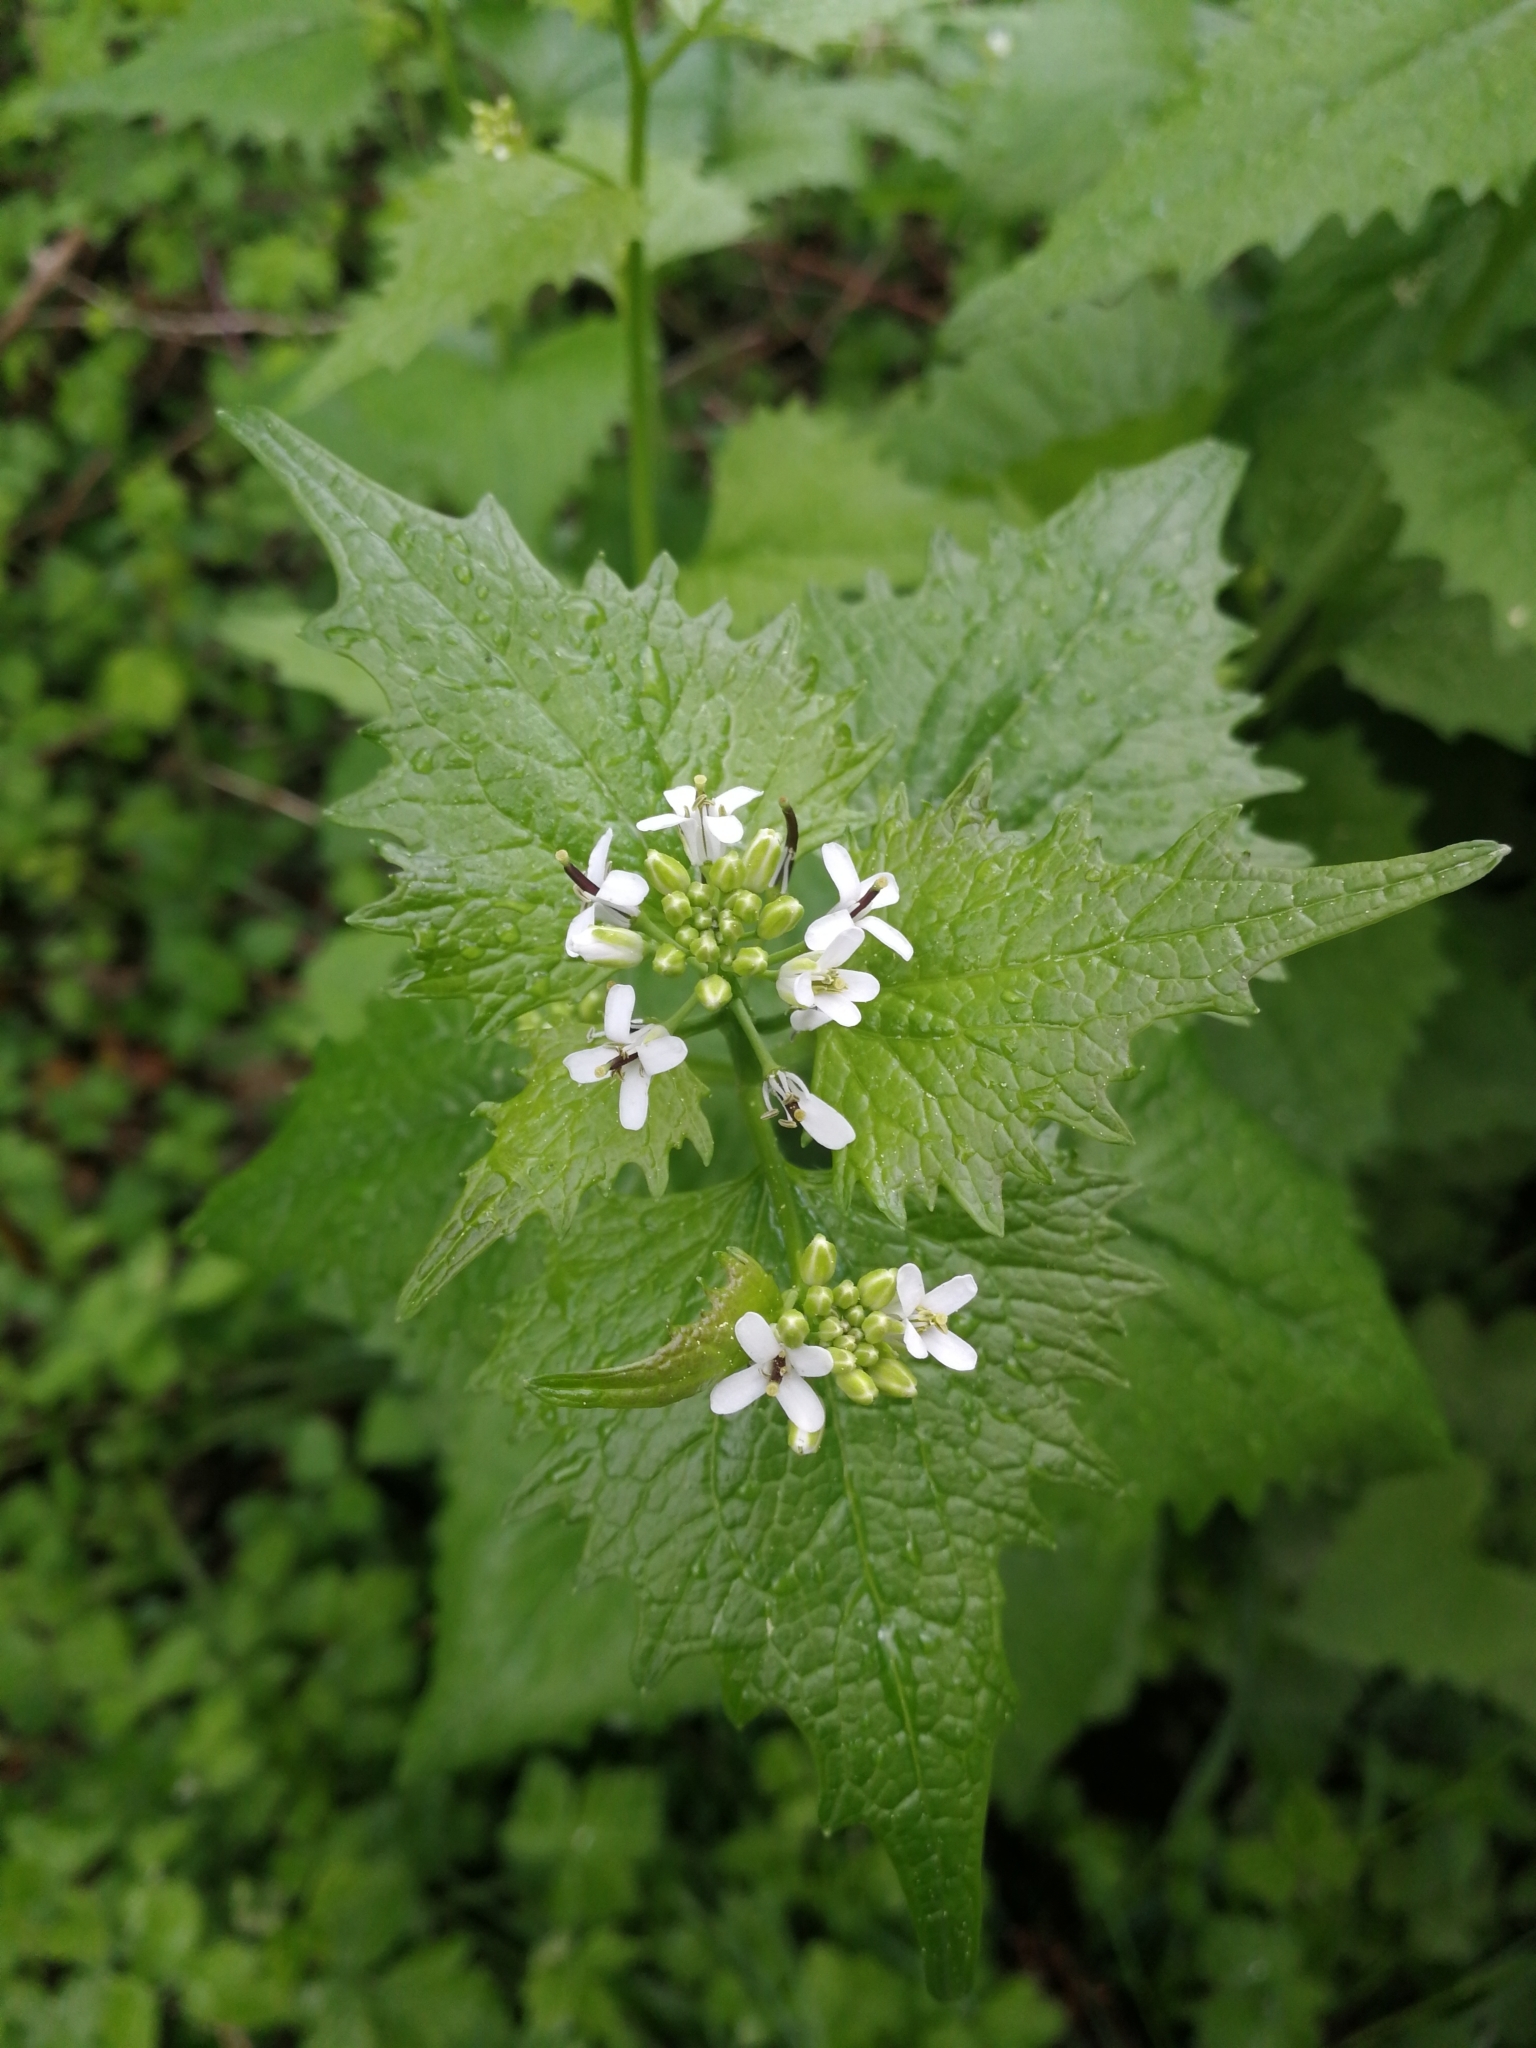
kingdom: Plantae
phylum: Tracheophyta
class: Magnoliopsida
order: Brassicales
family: Brassicaceae
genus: Alliaria
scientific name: Alliaria petiolata
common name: Garlic mustard
